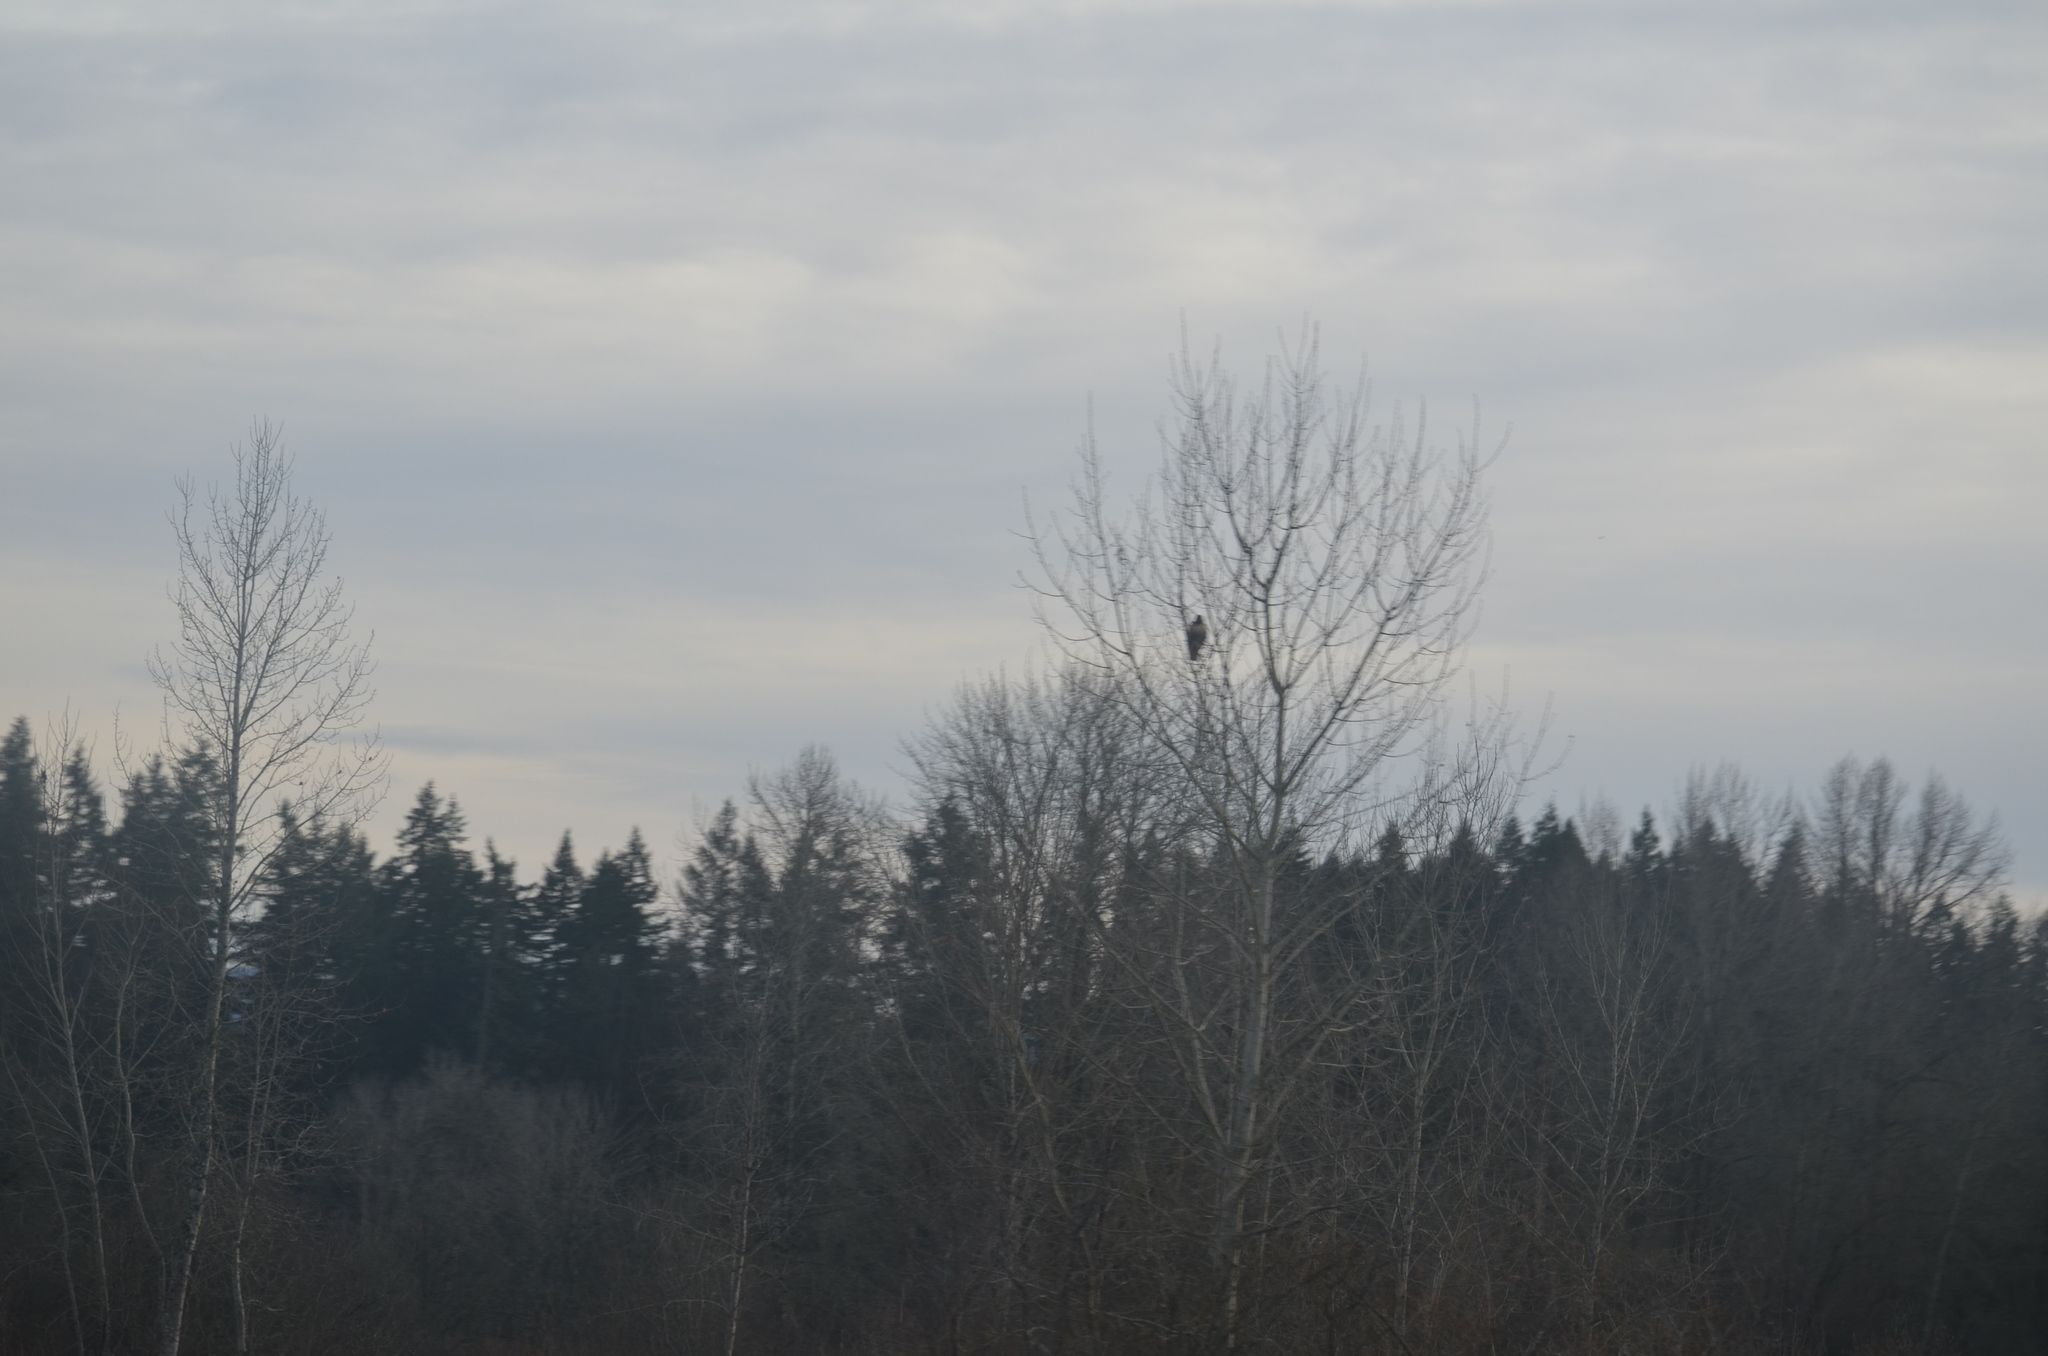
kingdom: Animalia
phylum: Chordata
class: Aves
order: Accipitriformes
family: Accipitridae
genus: Buteo
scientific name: Buteo jamaicensis
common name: Red-tailed hawk
